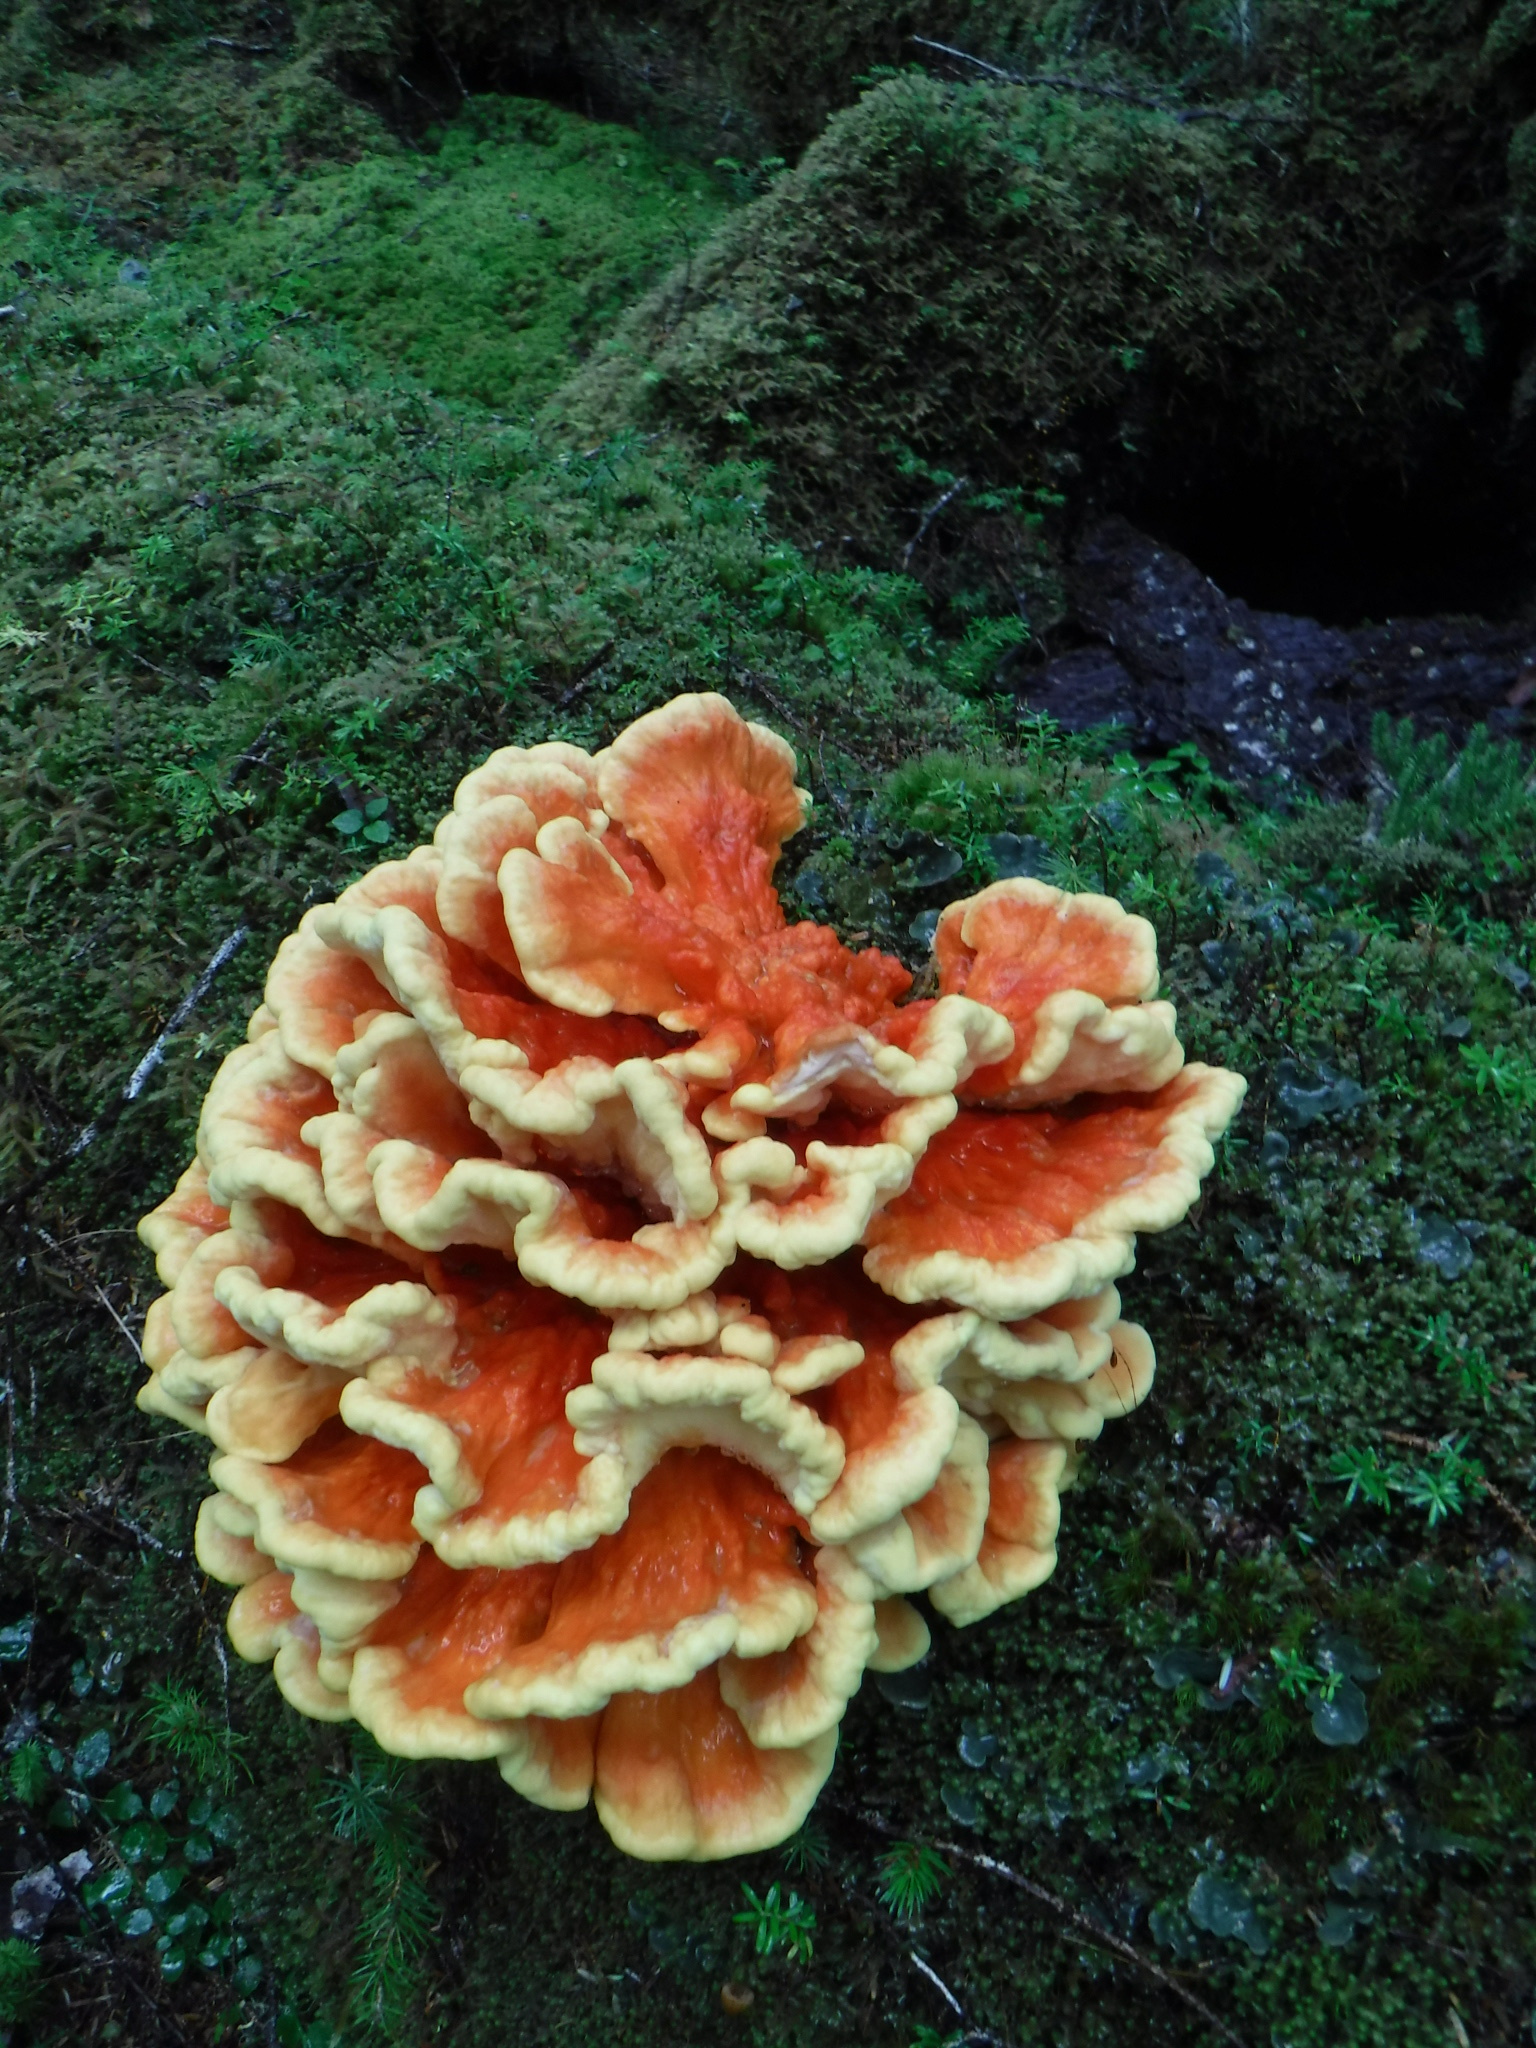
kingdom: Fungi
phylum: Basidiomycota
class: Agaricomycetes
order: Polyporales
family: Laetiporaceae
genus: Laetiporus
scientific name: Laetiporus conifericola
